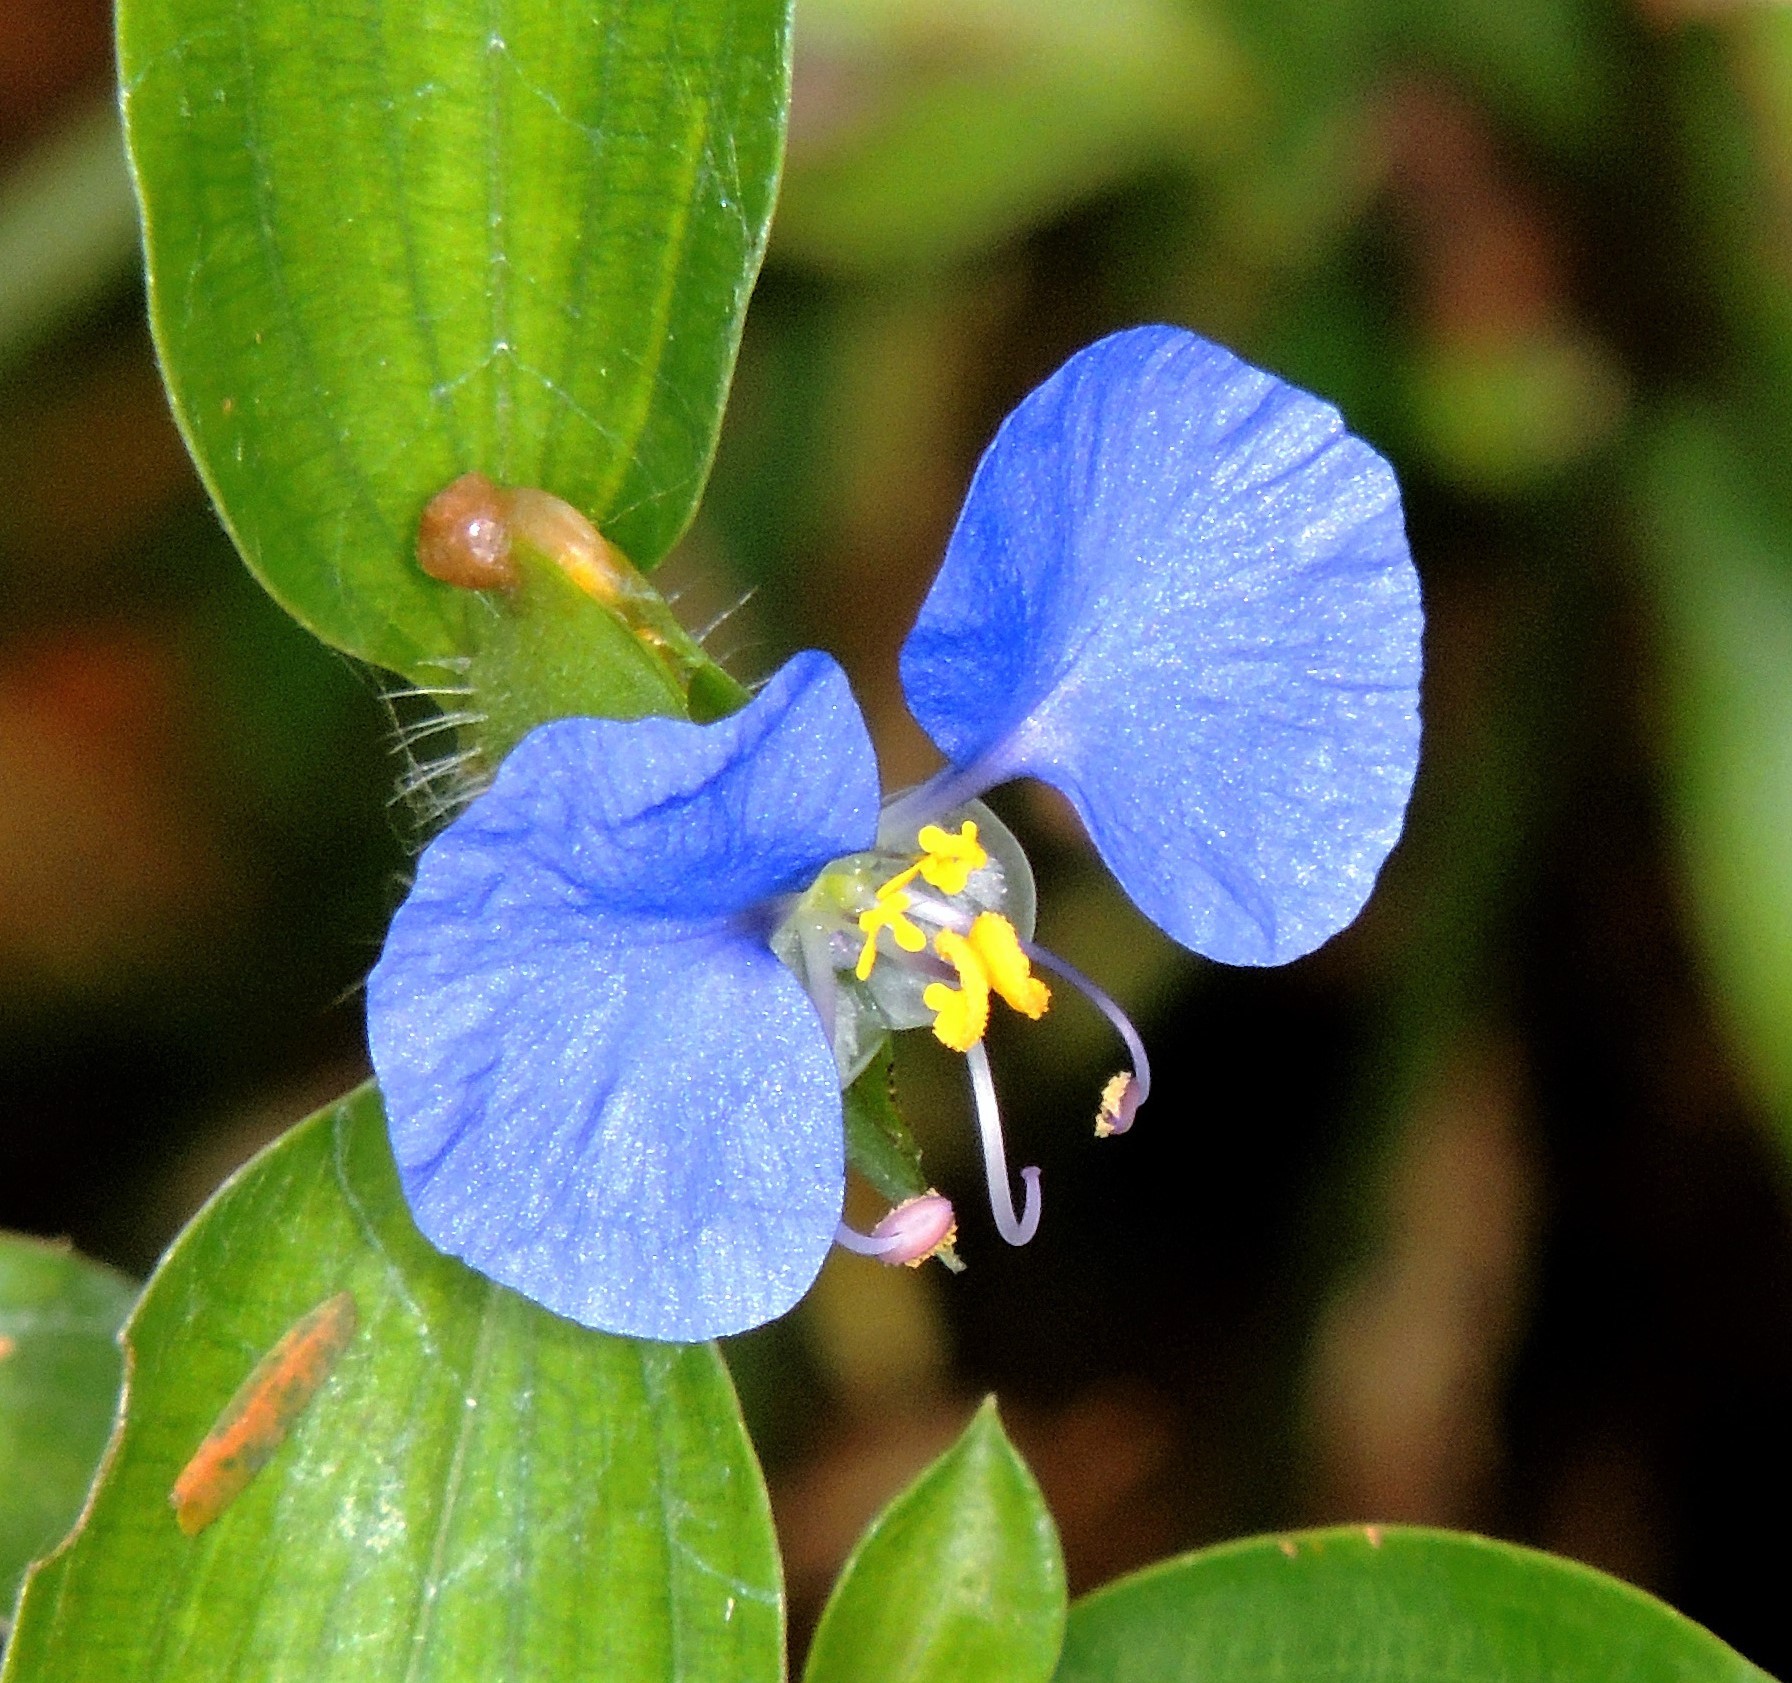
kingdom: Plantae
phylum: Tracheophyta
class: Liliopsida
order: Commelinales
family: Commelinaceae
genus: Commelina
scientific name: Commelina erecta
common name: Blousel blommetjie
